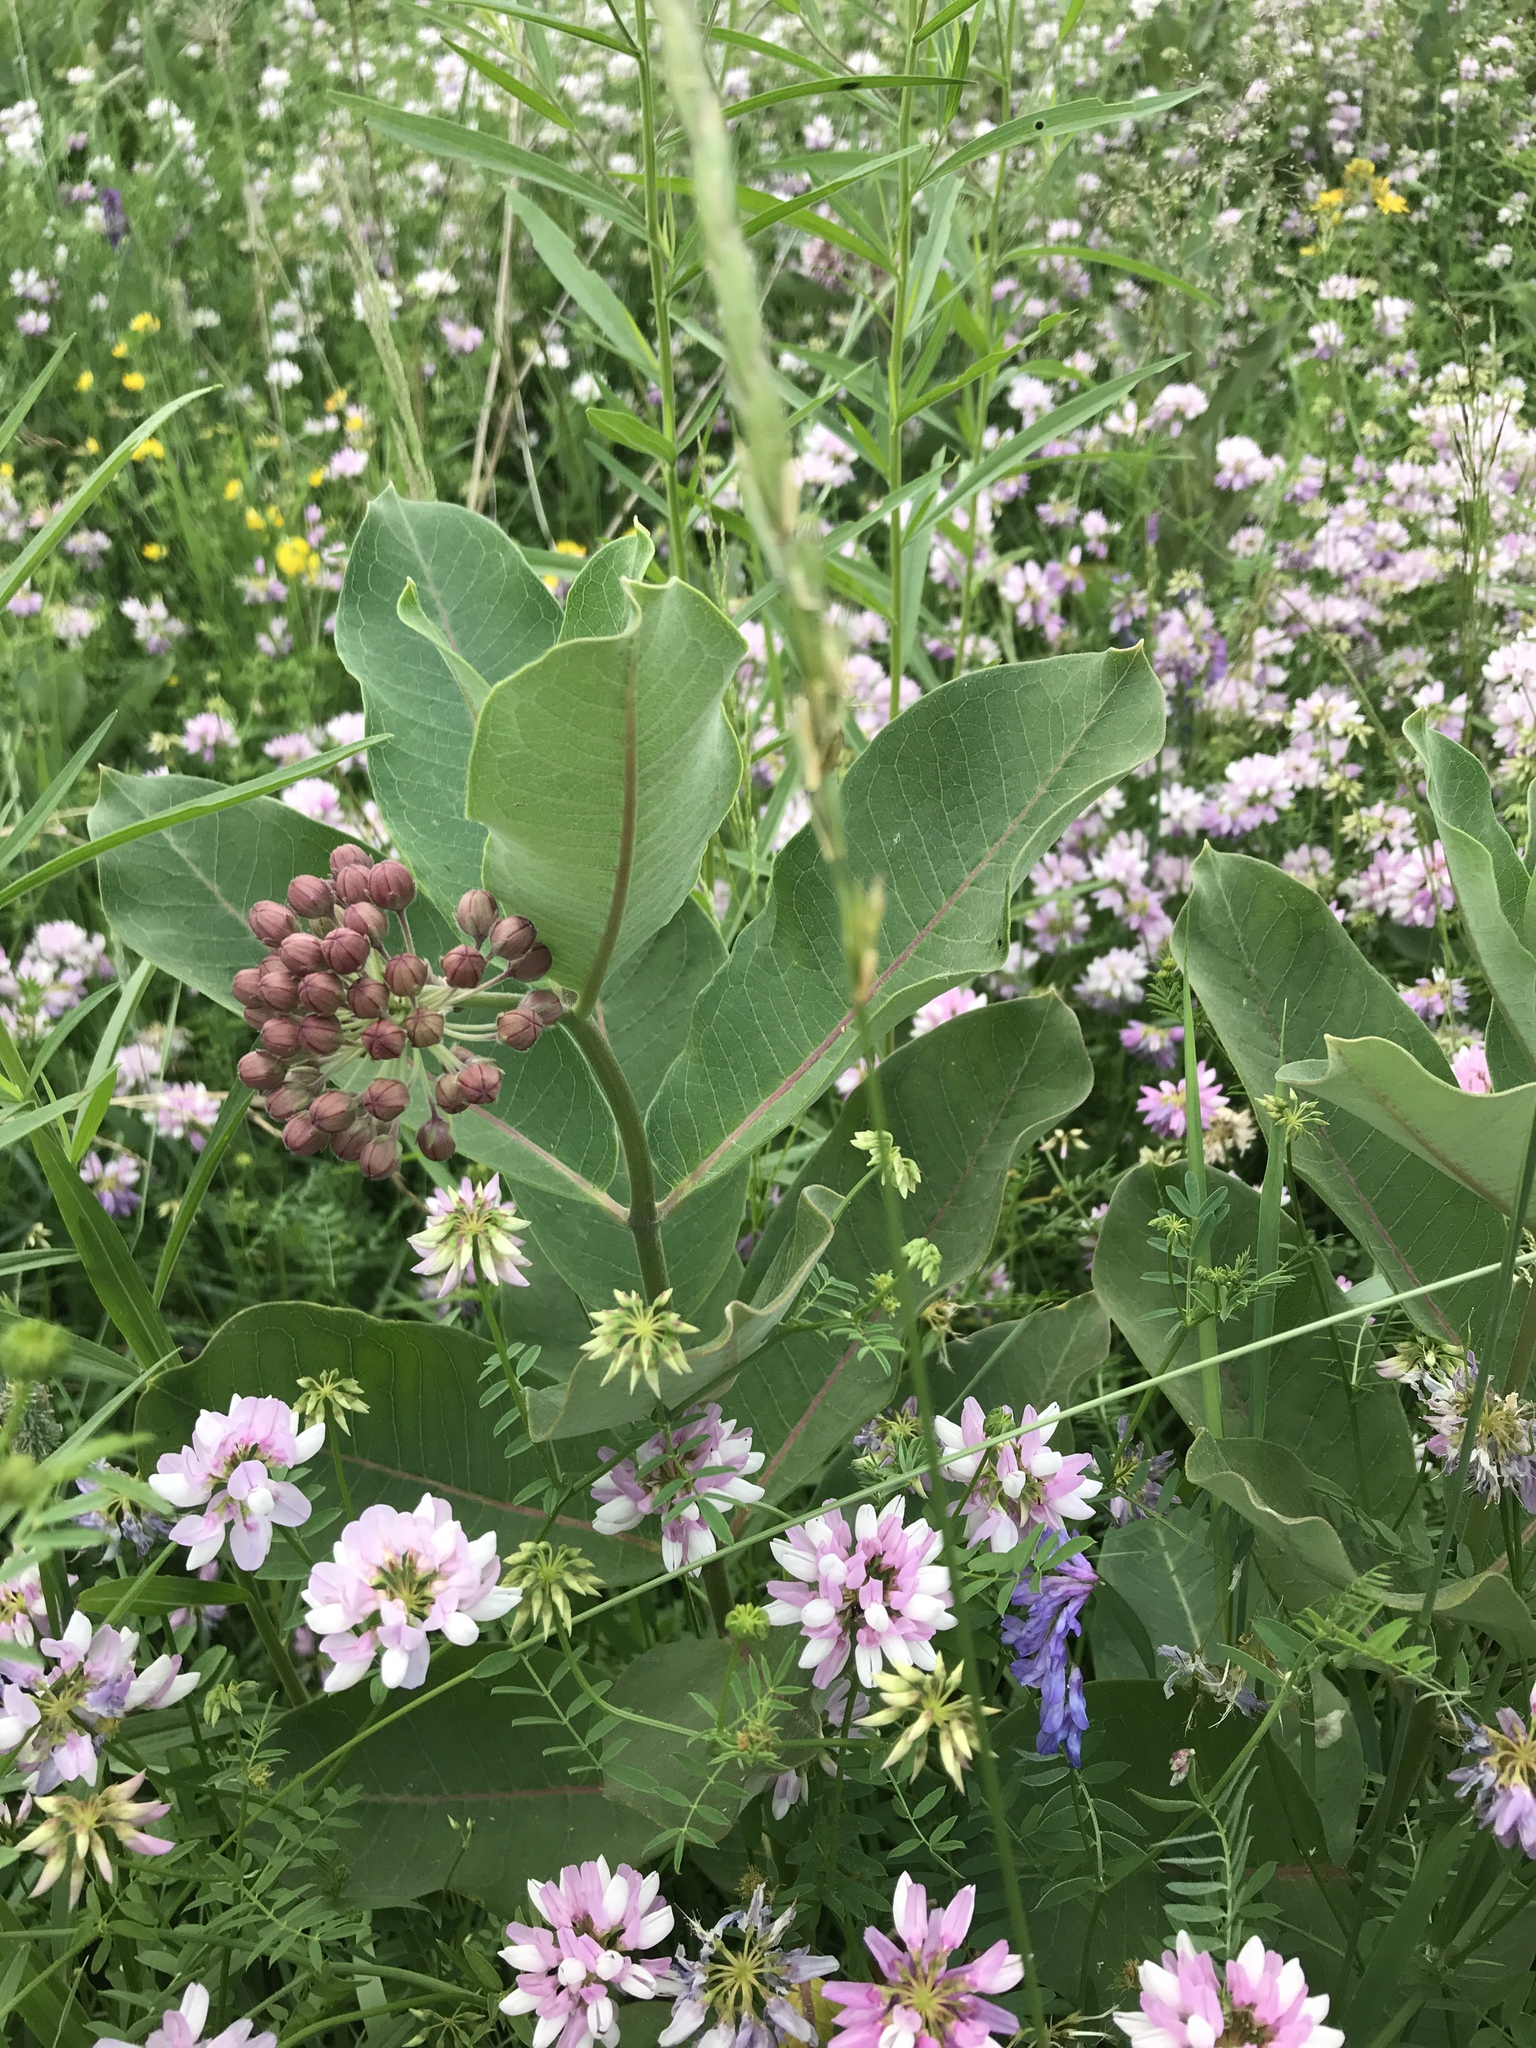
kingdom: Plantae
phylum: Tracheophyta
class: Magnoliopsida
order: Gentianales
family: Apocynaceae
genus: Asclepias
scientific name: Asclepias syriaca
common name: Common milkweed
